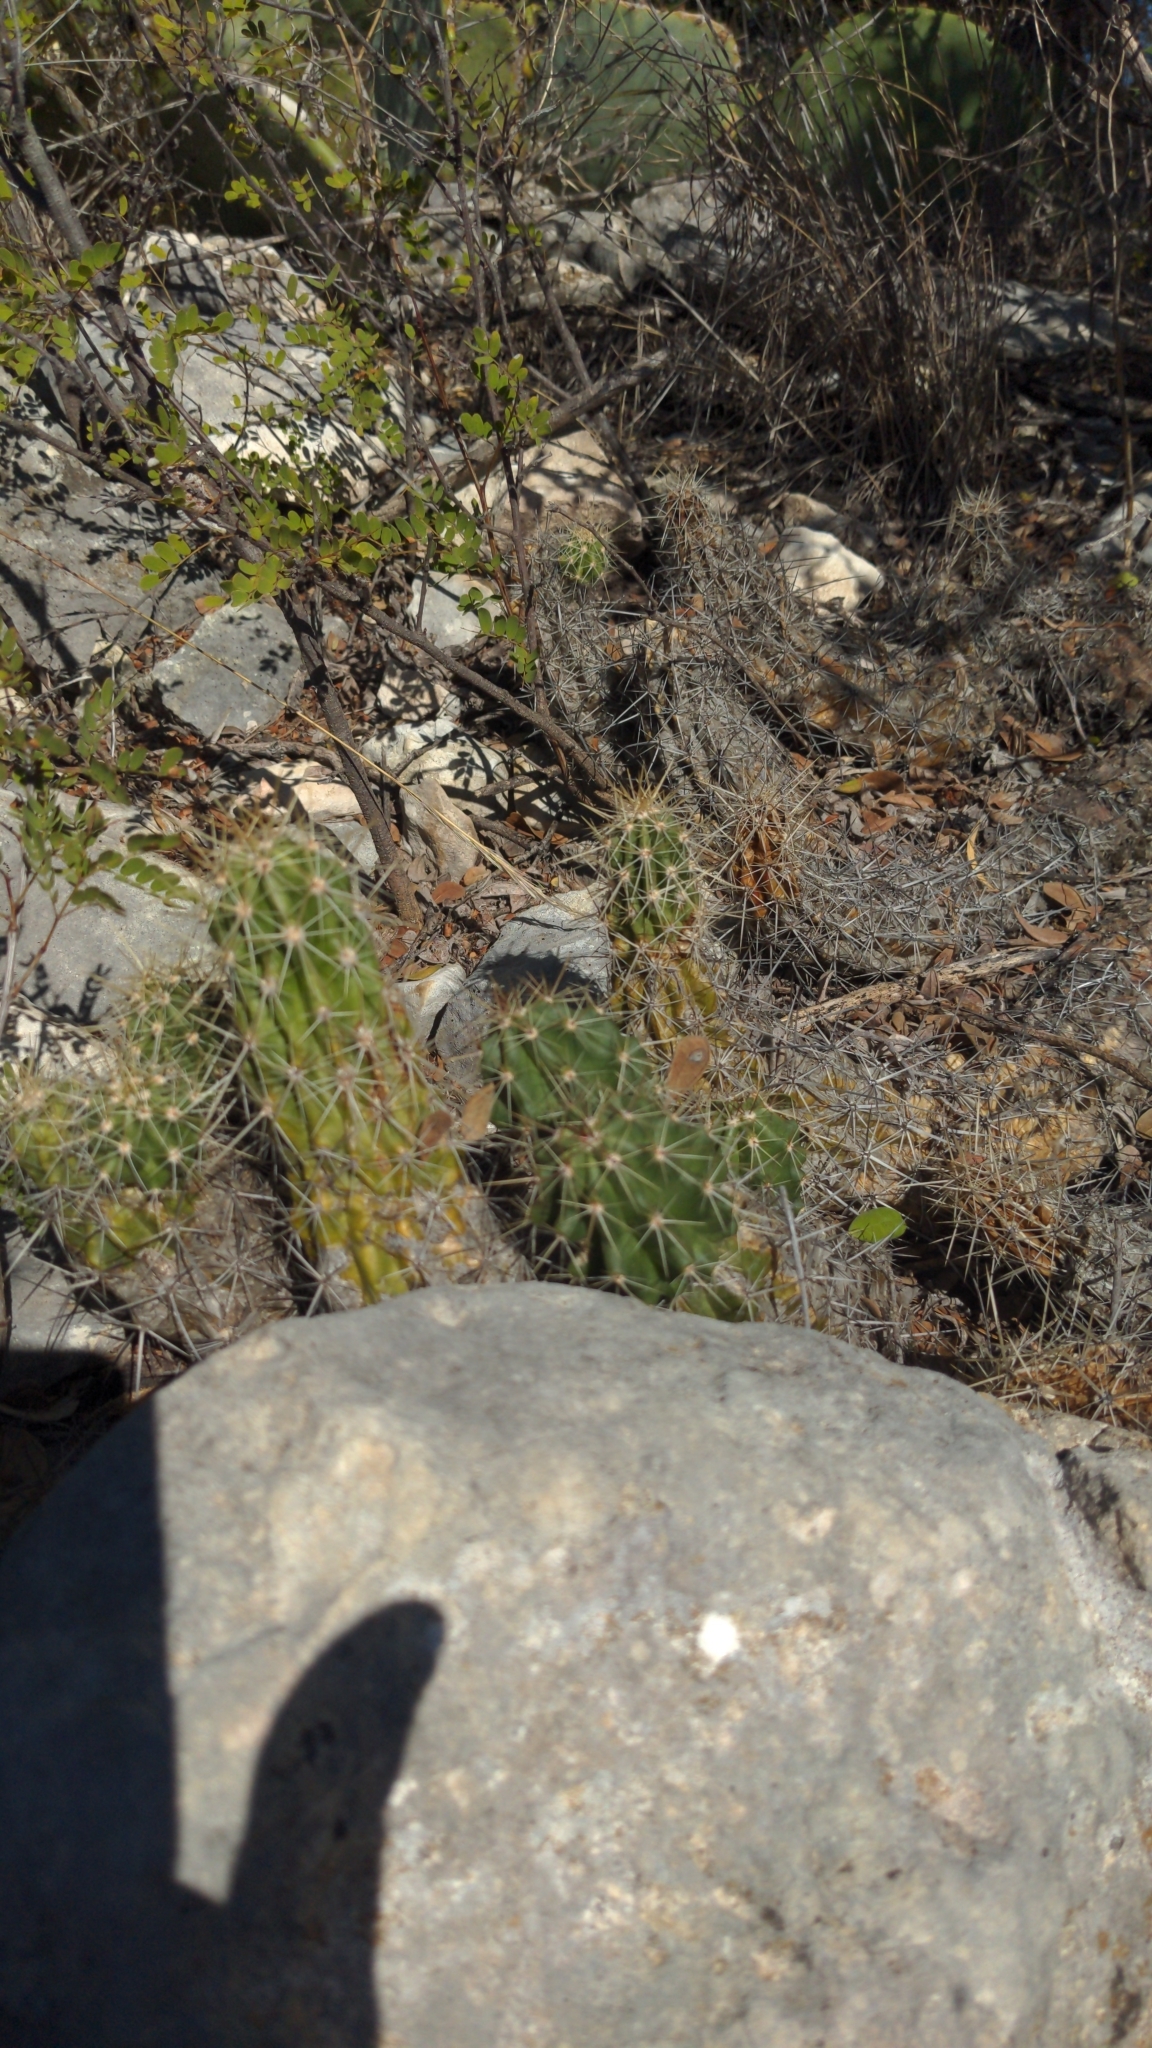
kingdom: Plantae
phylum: Tracheophyta
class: Magnoliopsida
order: Caryophyllales
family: Cactaceae
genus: Echinocereus
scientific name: Echinocereus enneacanthus
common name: Pitaya
